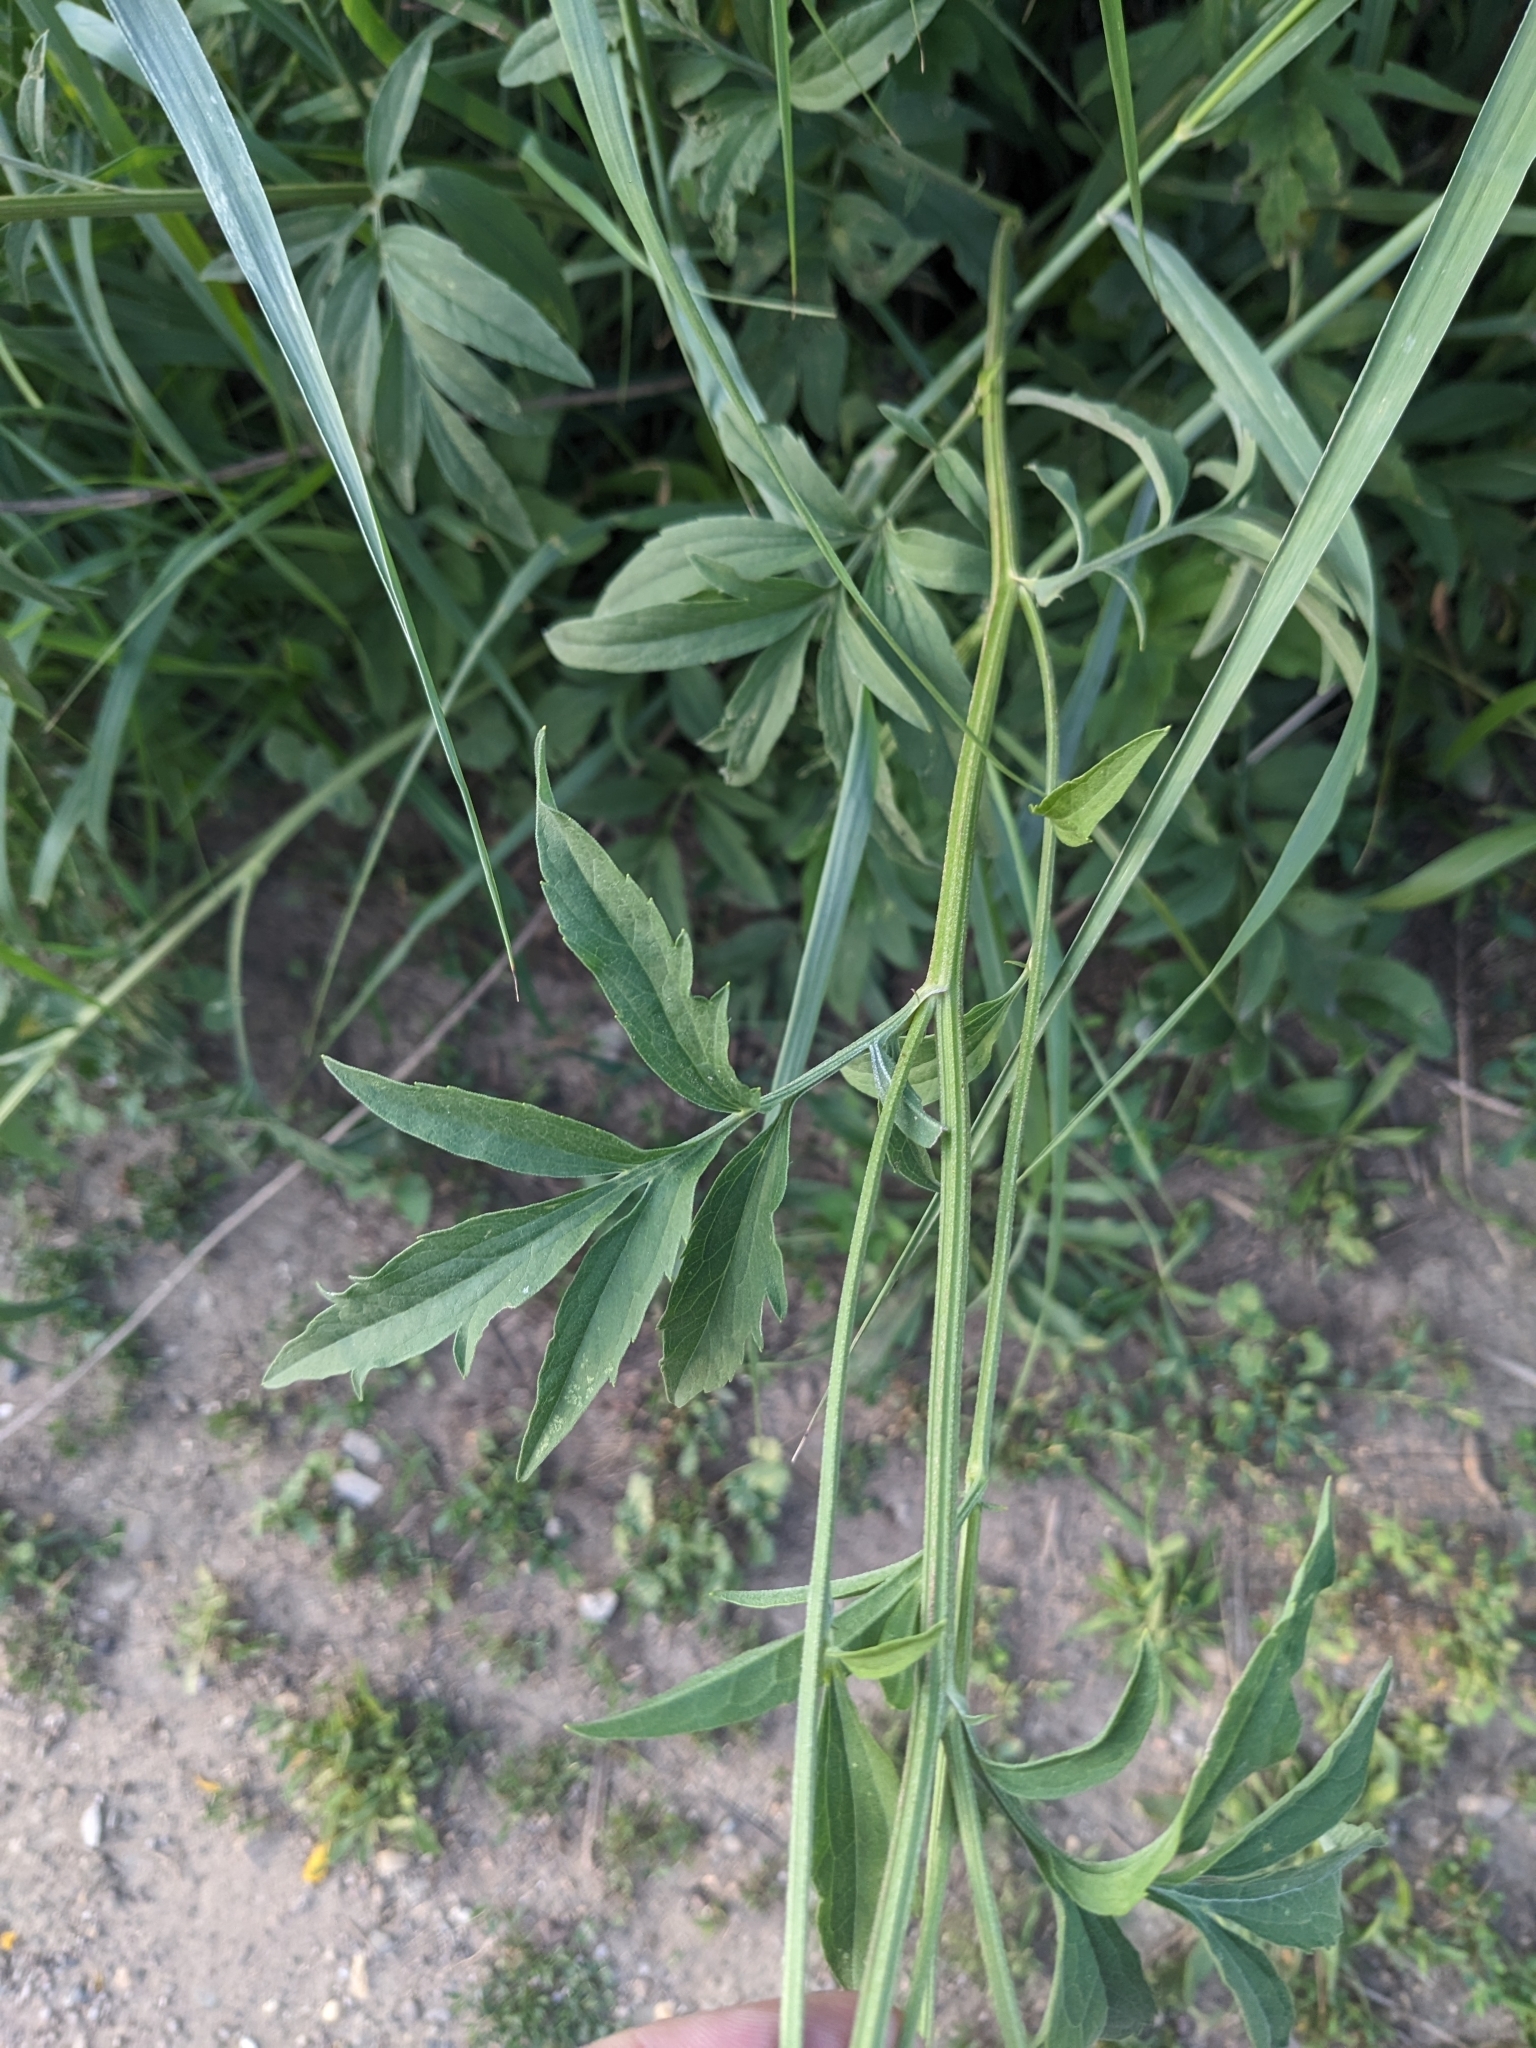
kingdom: Plantae
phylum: Tracheophyta
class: Magnoliopsida
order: Asterales
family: Asteraceae
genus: Ratibida
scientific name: Ratibida pinnata
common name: Drooping prairie-coneflower
